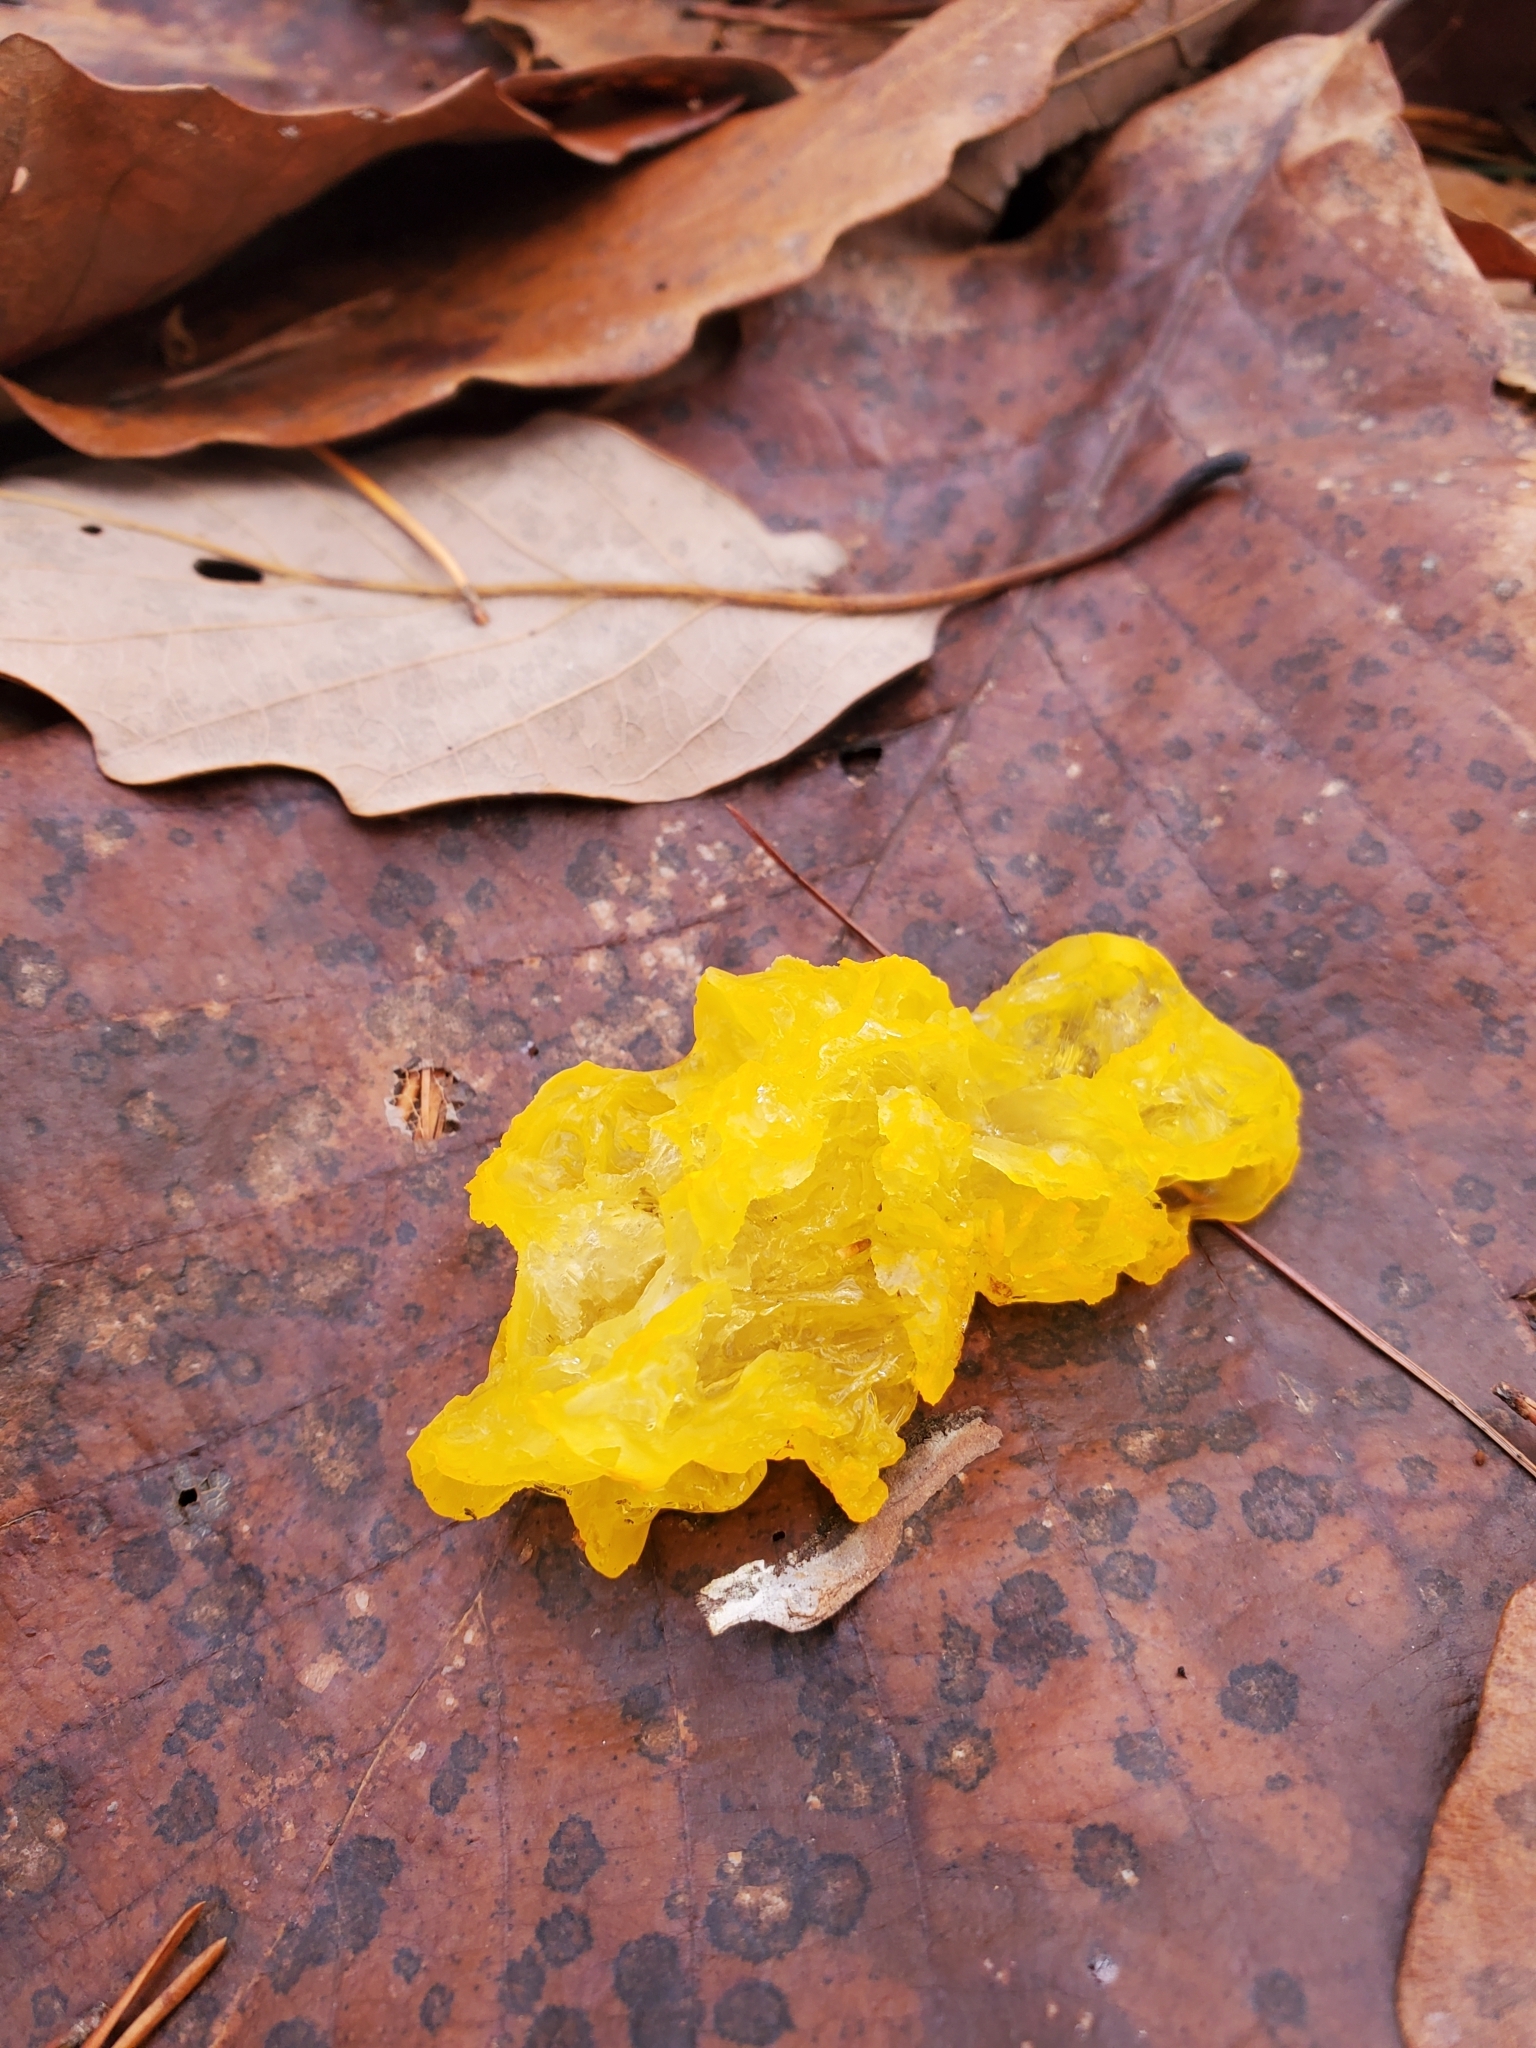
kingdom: Fungi
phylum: Basidiomycota
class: Tremellomycetes
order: Tremellales
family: Tremellaceae
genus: Tremella
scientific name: Tremella mesenterica
